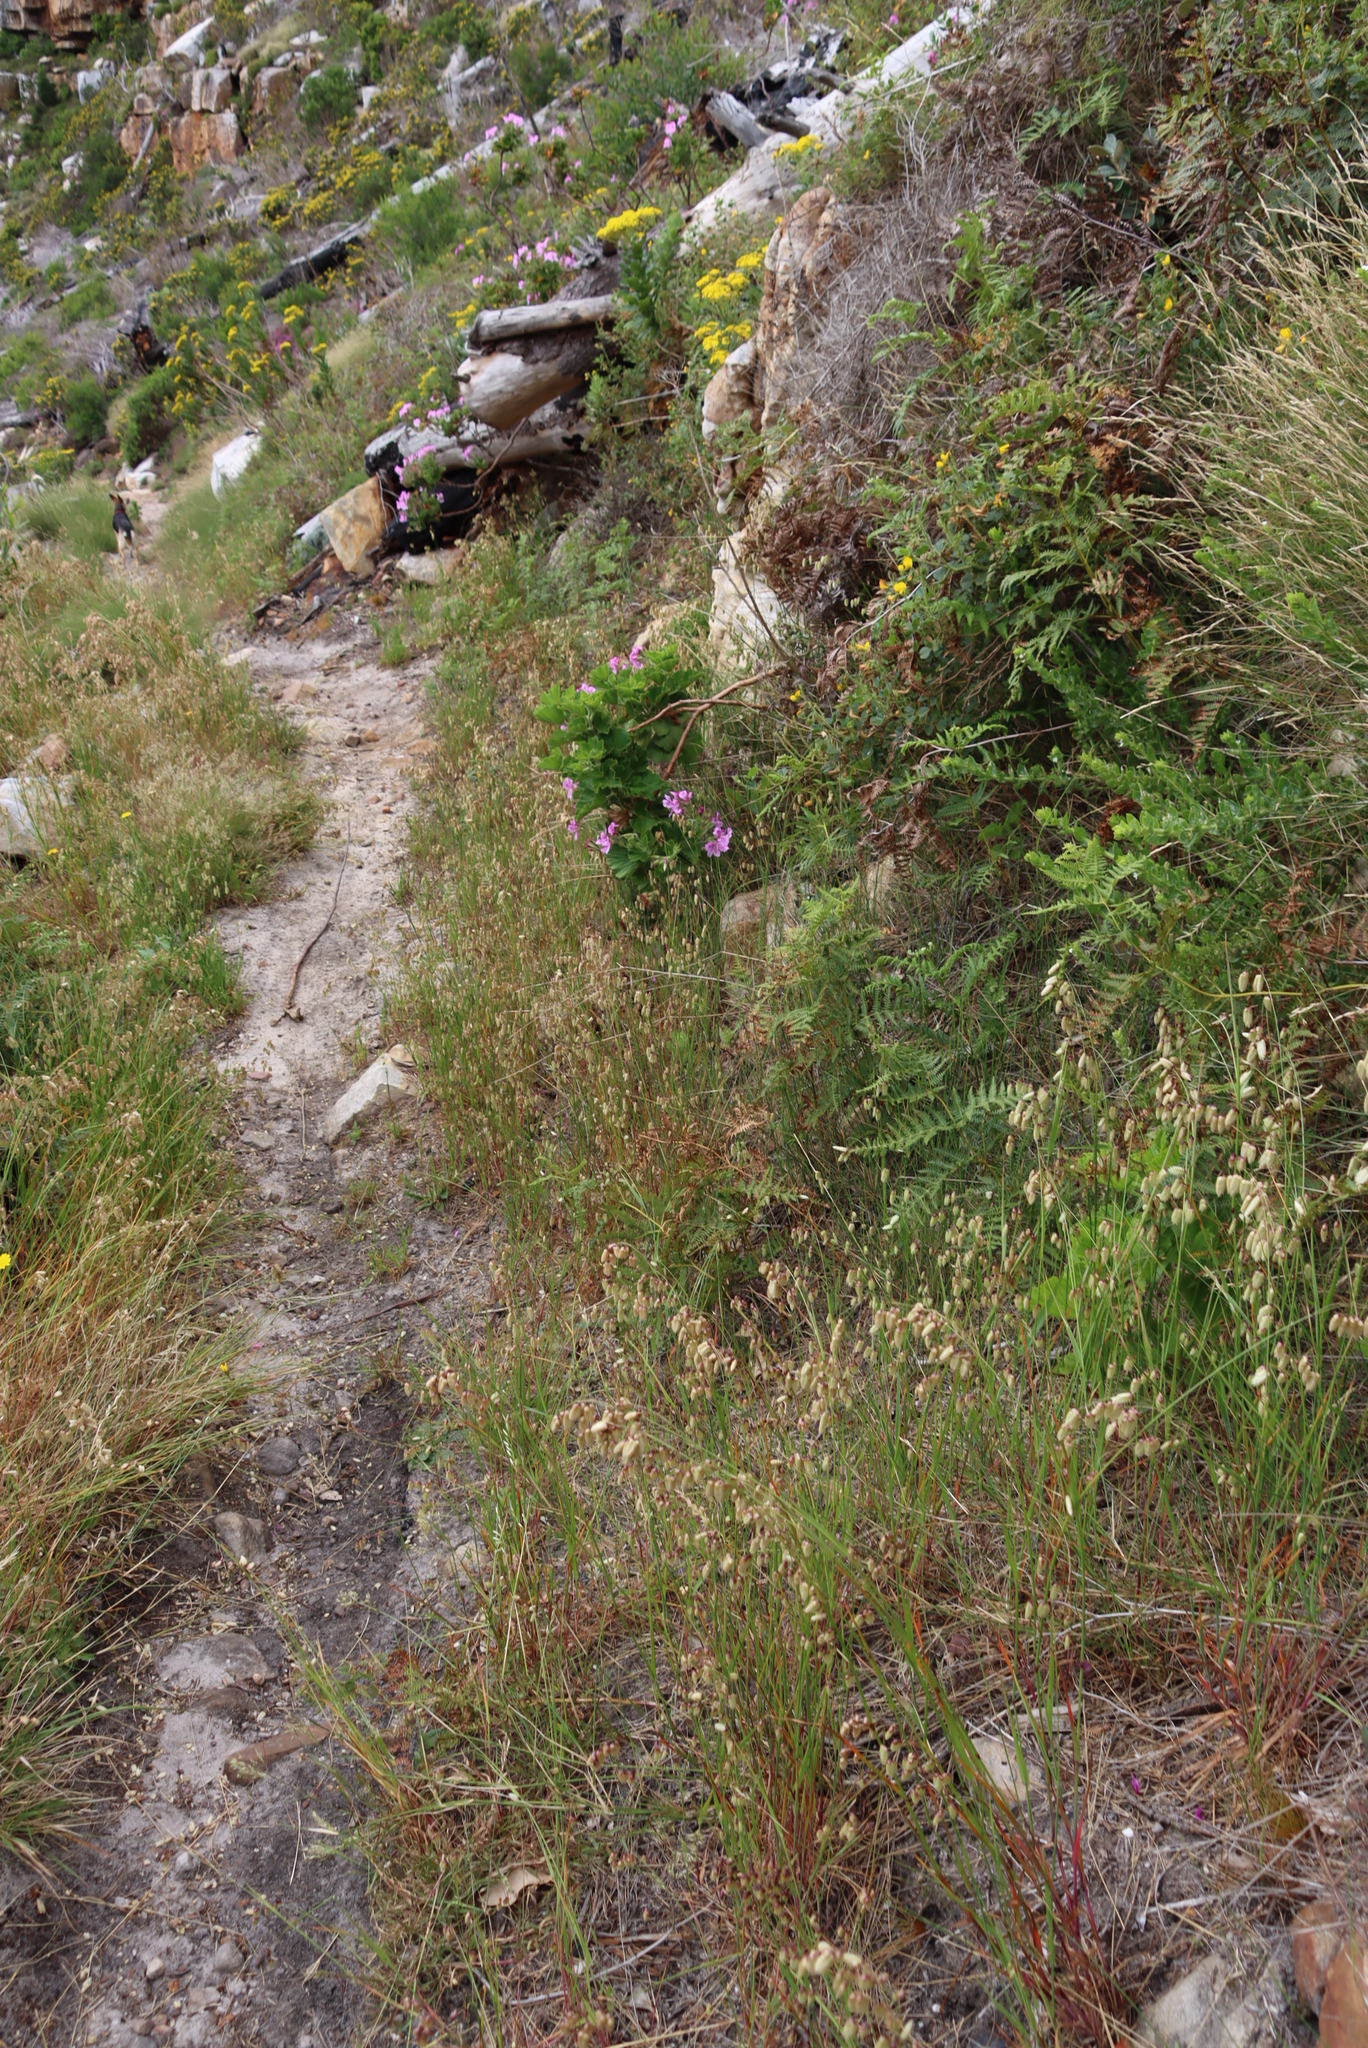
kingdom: Plantae
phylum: Tracheophyta
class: Liliopsida
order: Poales
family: Poaceae
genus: Briza
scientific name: Briza maxima
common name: Big quakinggrass
